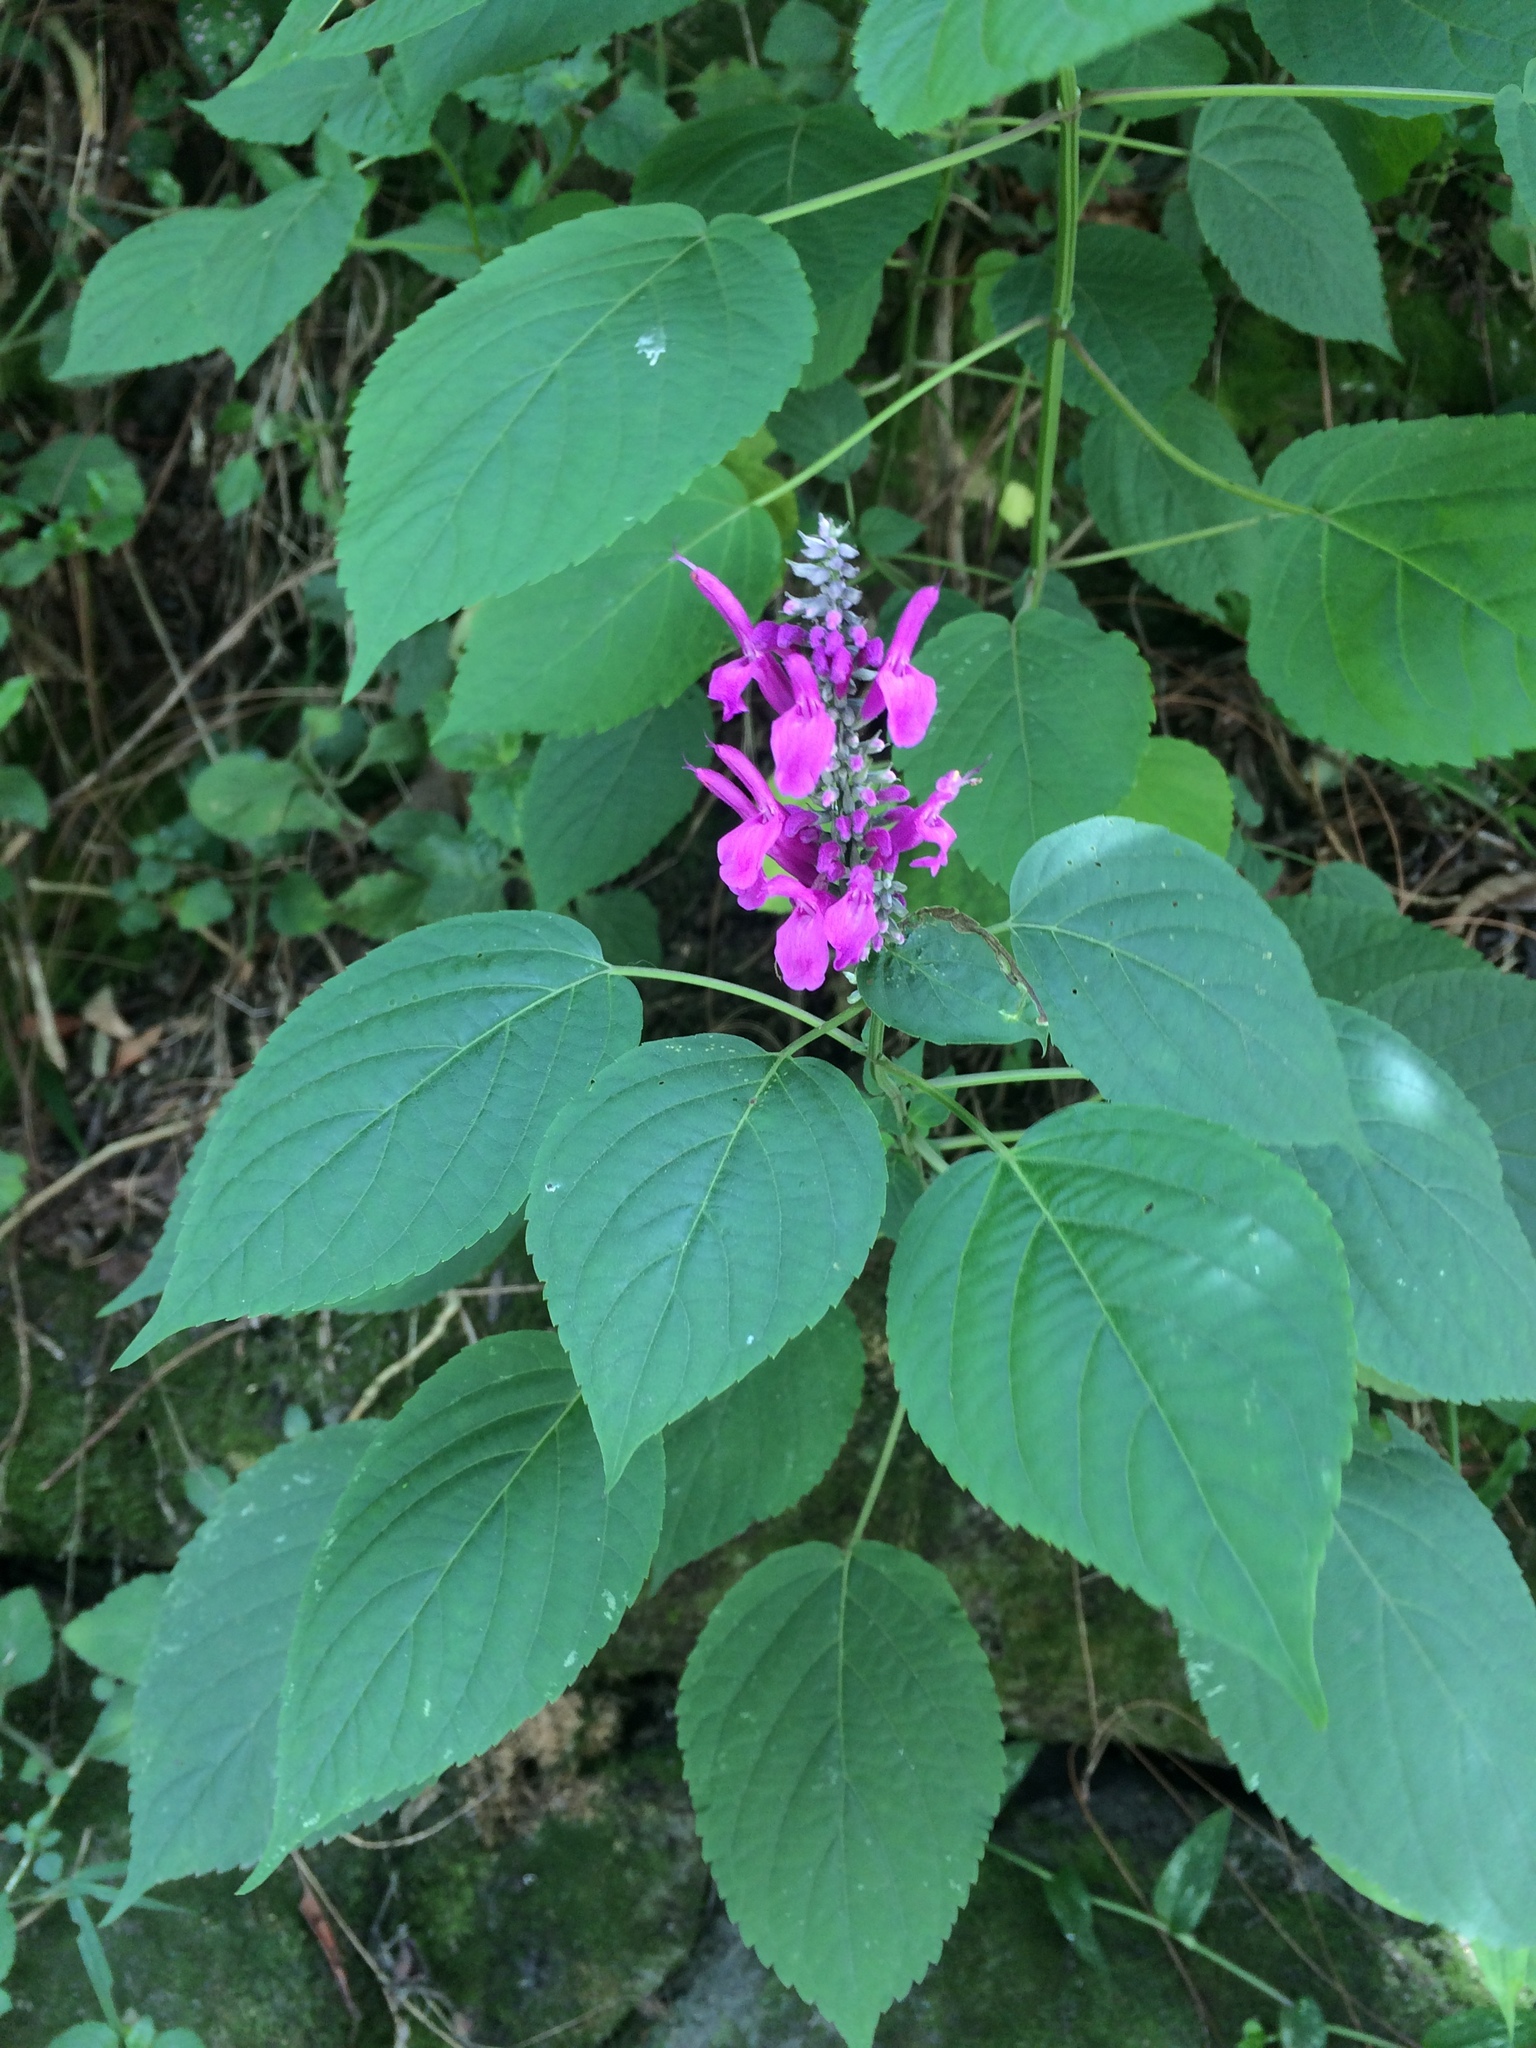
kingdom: Plantae
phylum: Tracheophyta
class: Magnoliopsida
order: Lamiales
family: Lamiaceae
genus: Salvia
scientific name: Salvia purpurea
